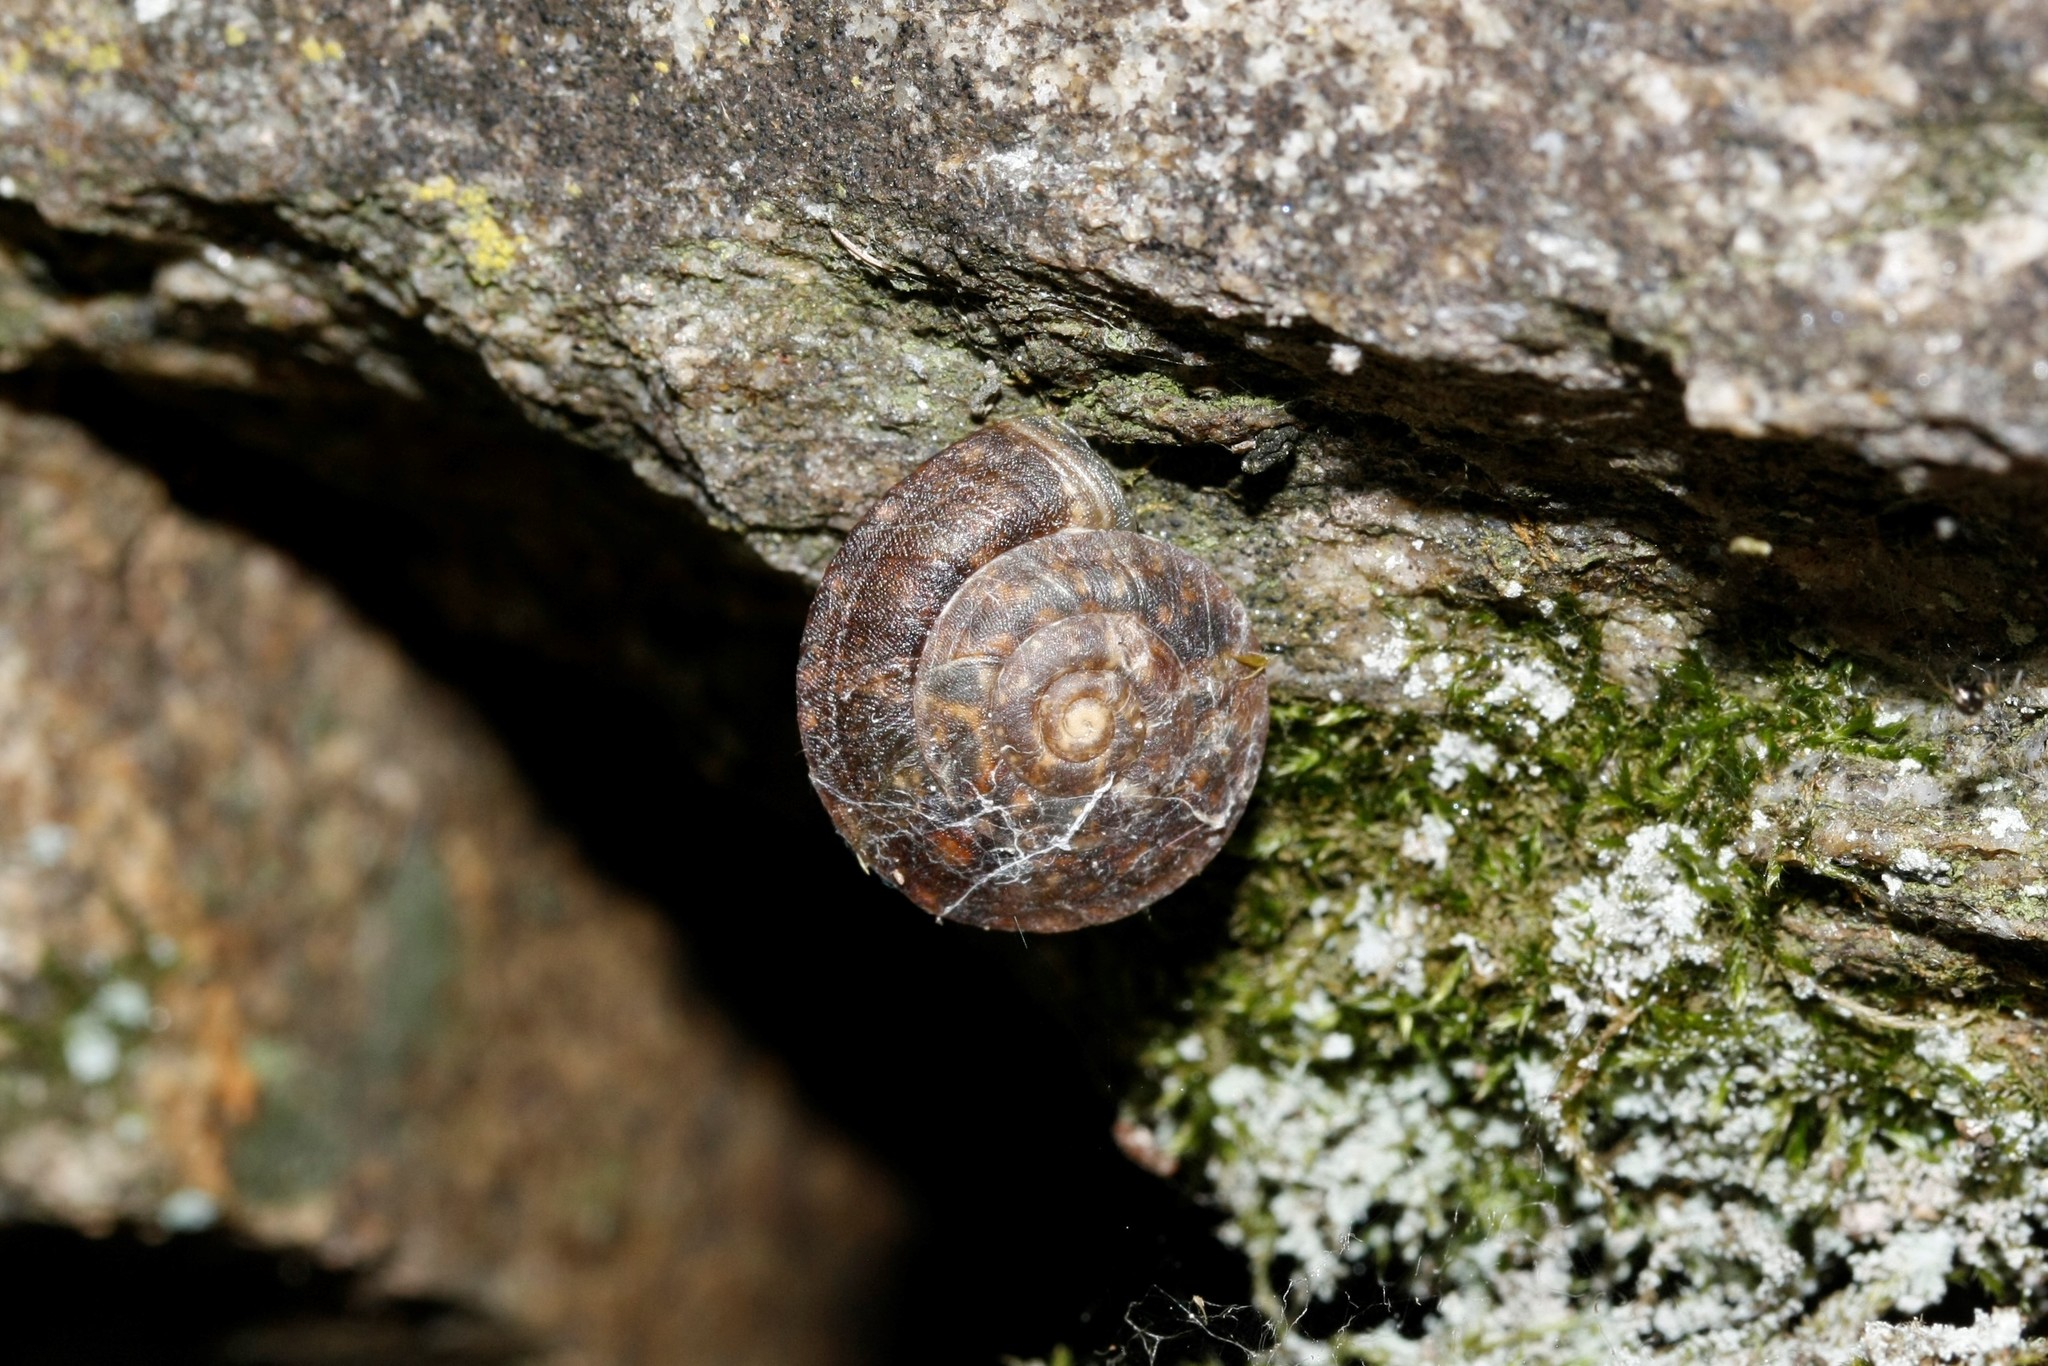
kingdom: Animalia
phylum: Mollusca
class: Gastropoda
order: Stylommatophora
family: Helicidae
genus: Helicigona
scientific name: Helicigona lapicida
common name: Lapidary snail
